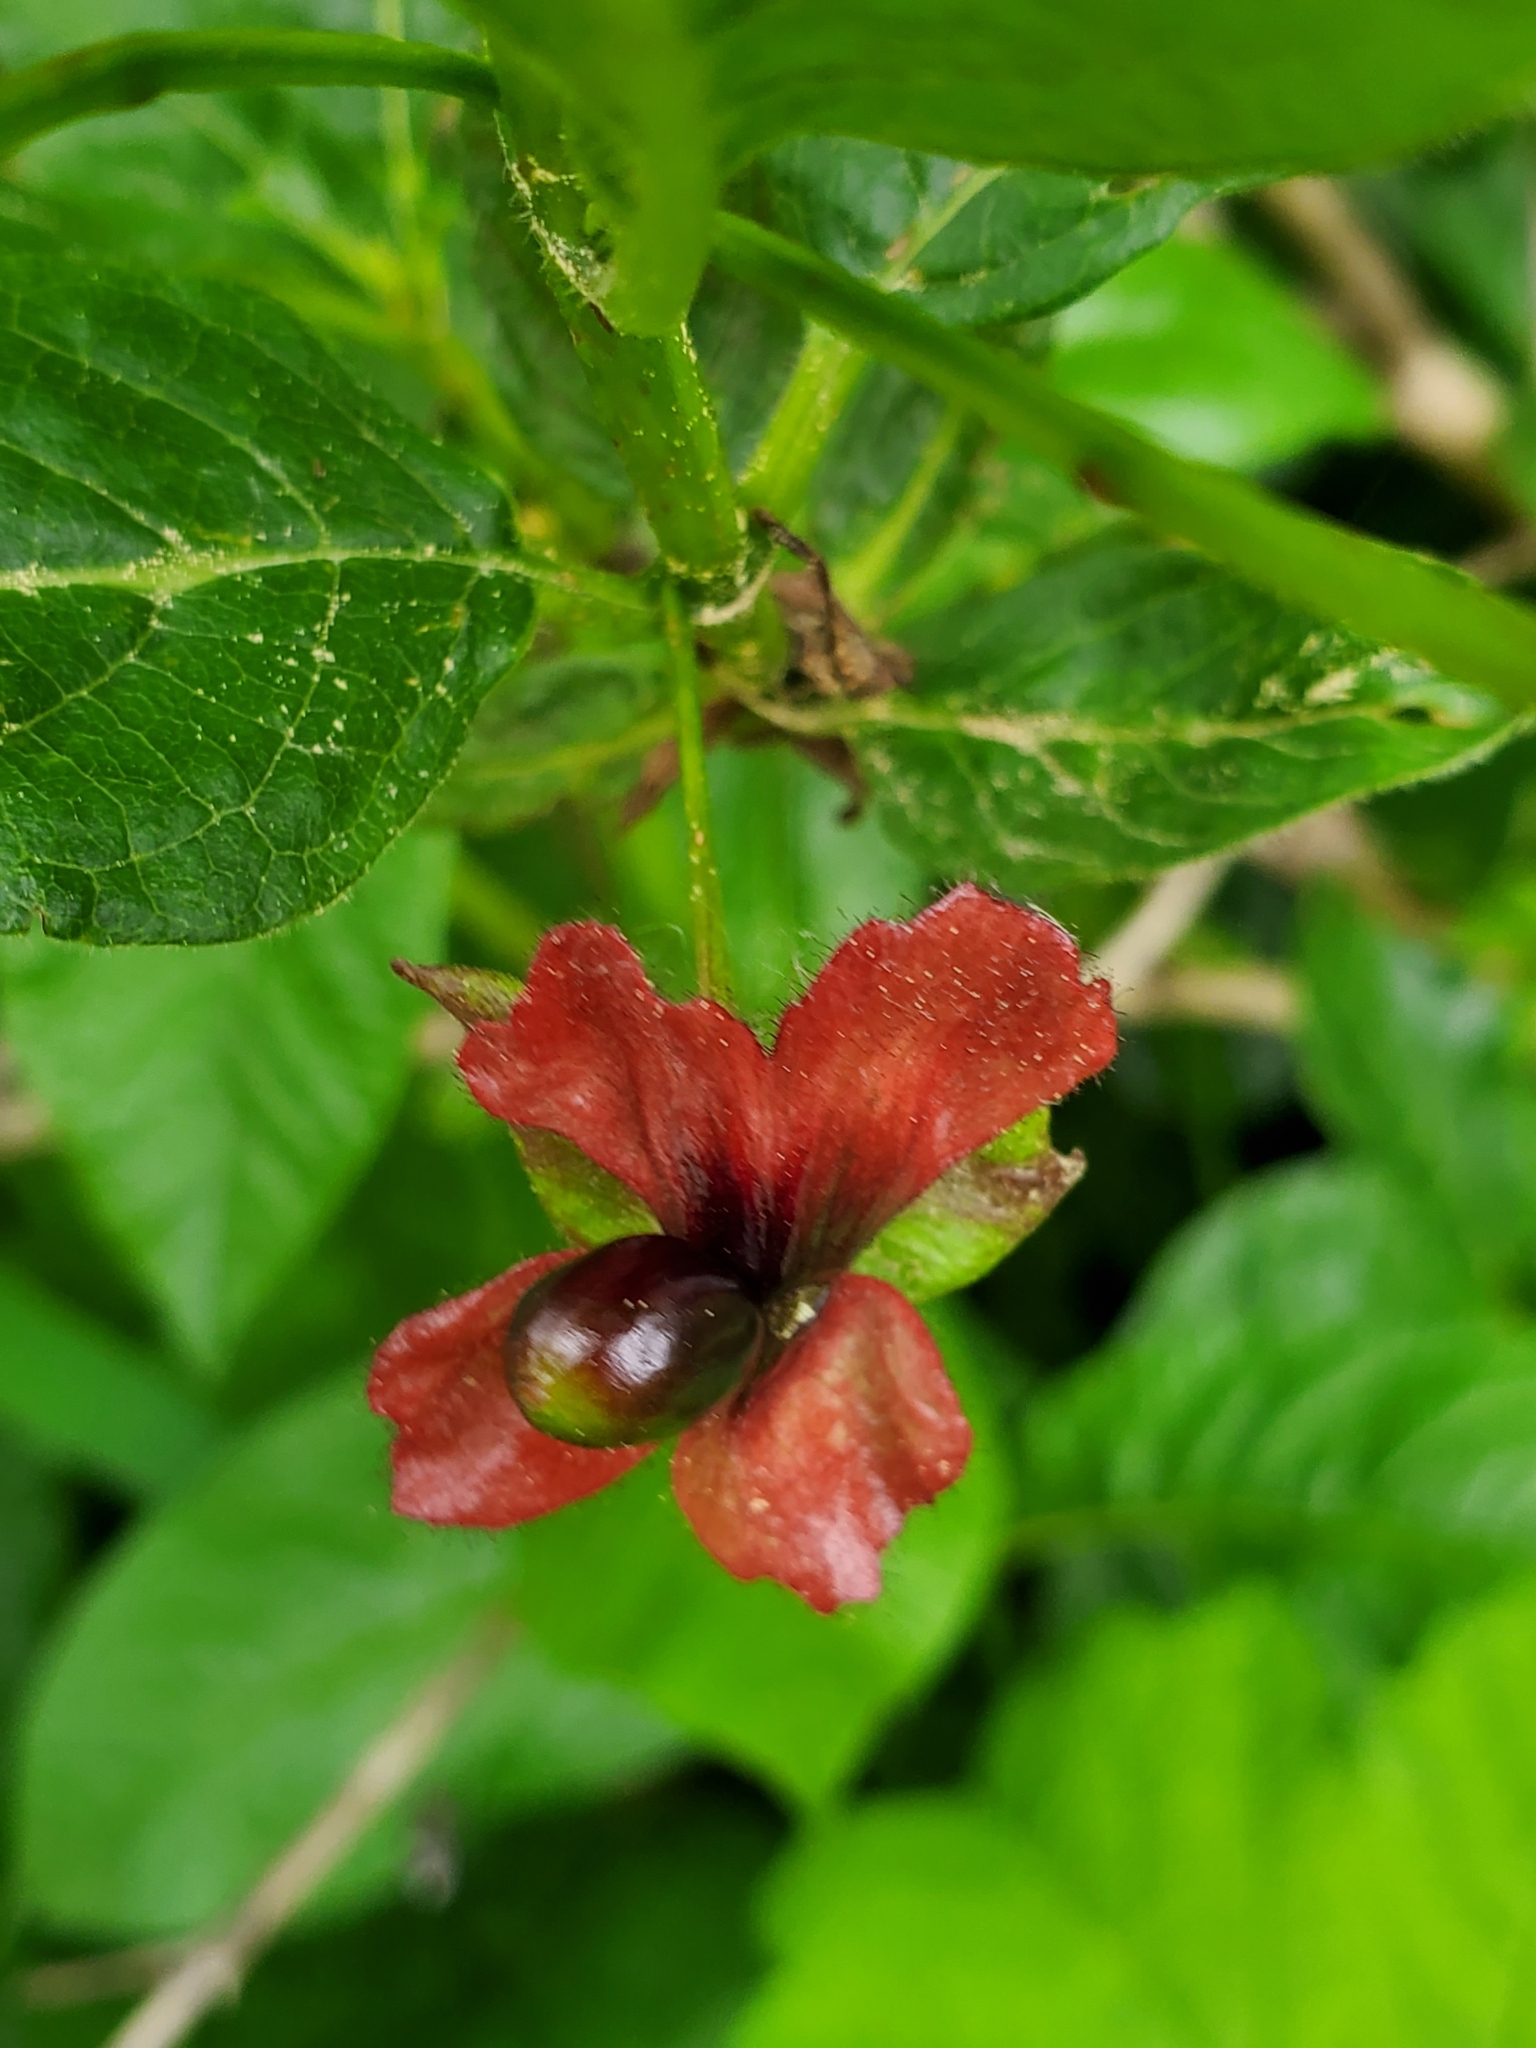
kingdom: Plantae
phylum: Tracheophyta
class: Magnoliopsida
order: Dipsacales
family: Caprifoliaceae
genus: Lonicera
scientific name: Lonicera involucrata
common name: Californian honeysuckle
